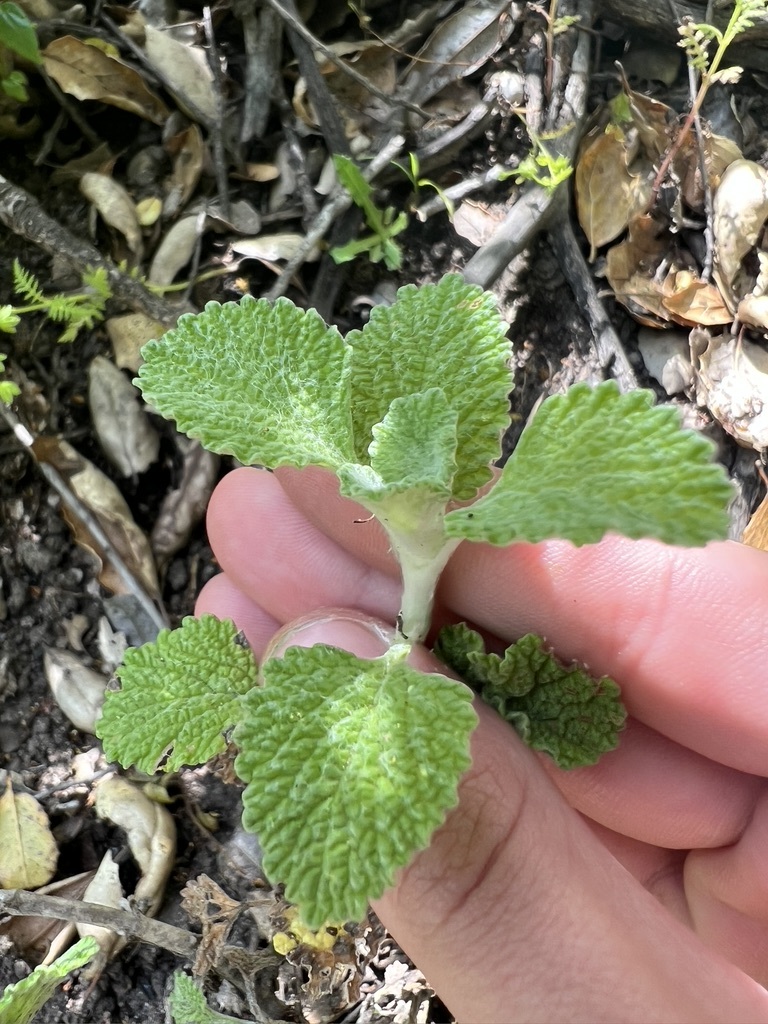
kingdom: Plantae
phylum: Tracheophyta
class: Magnoliopsida
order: Lamiales
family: Lamiaceae
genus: Marrubium
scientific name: Marrubium vulgare
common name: Horehound
